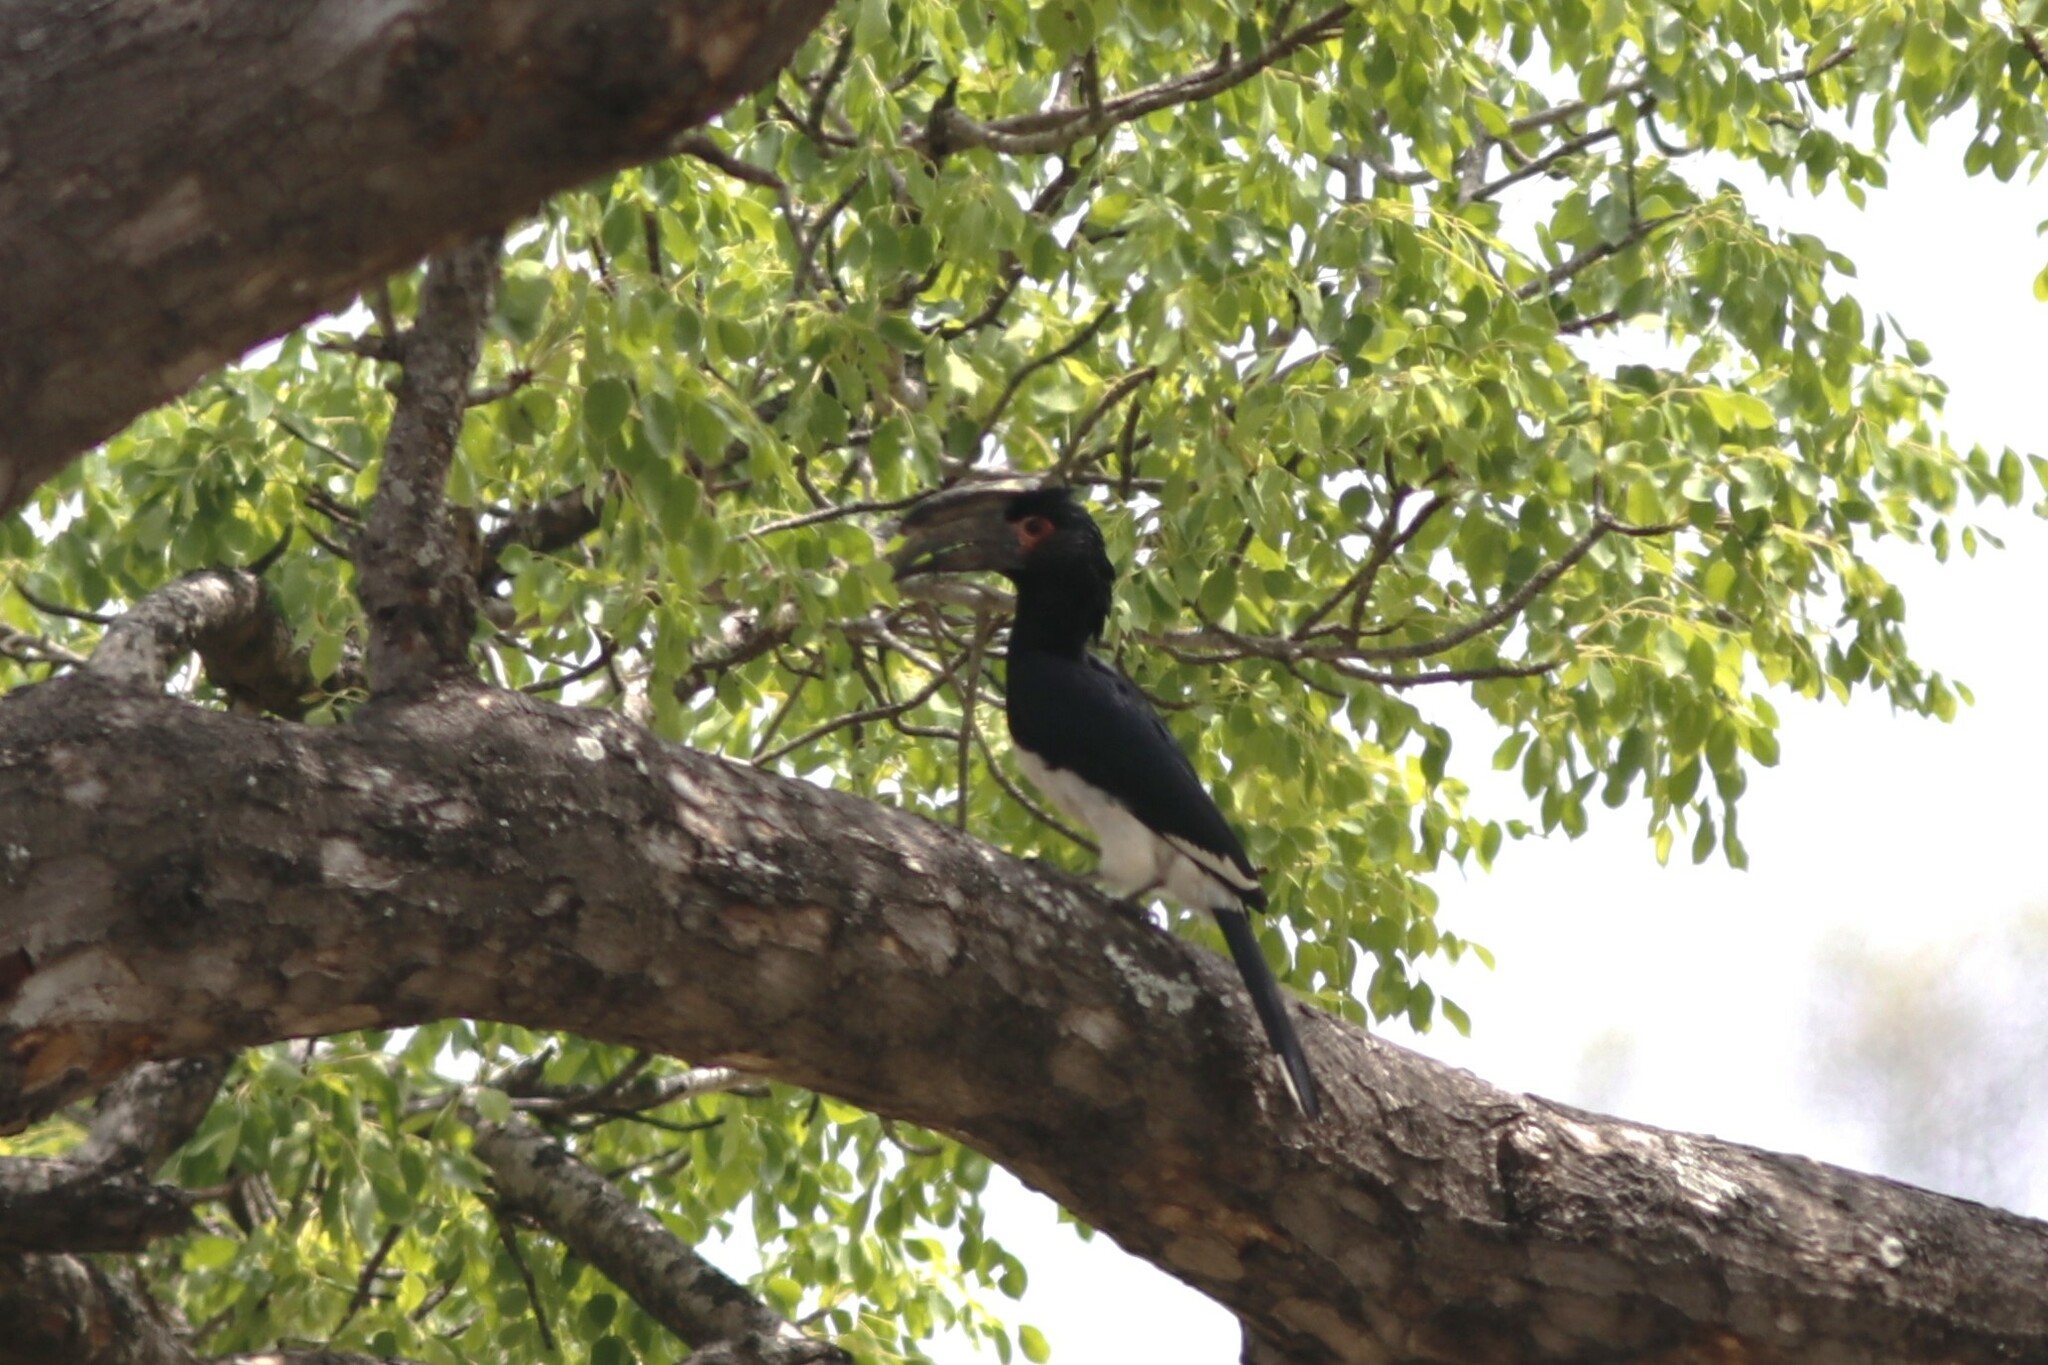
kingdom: Animalia
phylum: Chordata
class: Aves
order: Bucerotiformes
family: Bucerotidae
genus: Bycanistes
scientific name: Bycanistes bucinator
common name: Trumpeter hornbill
